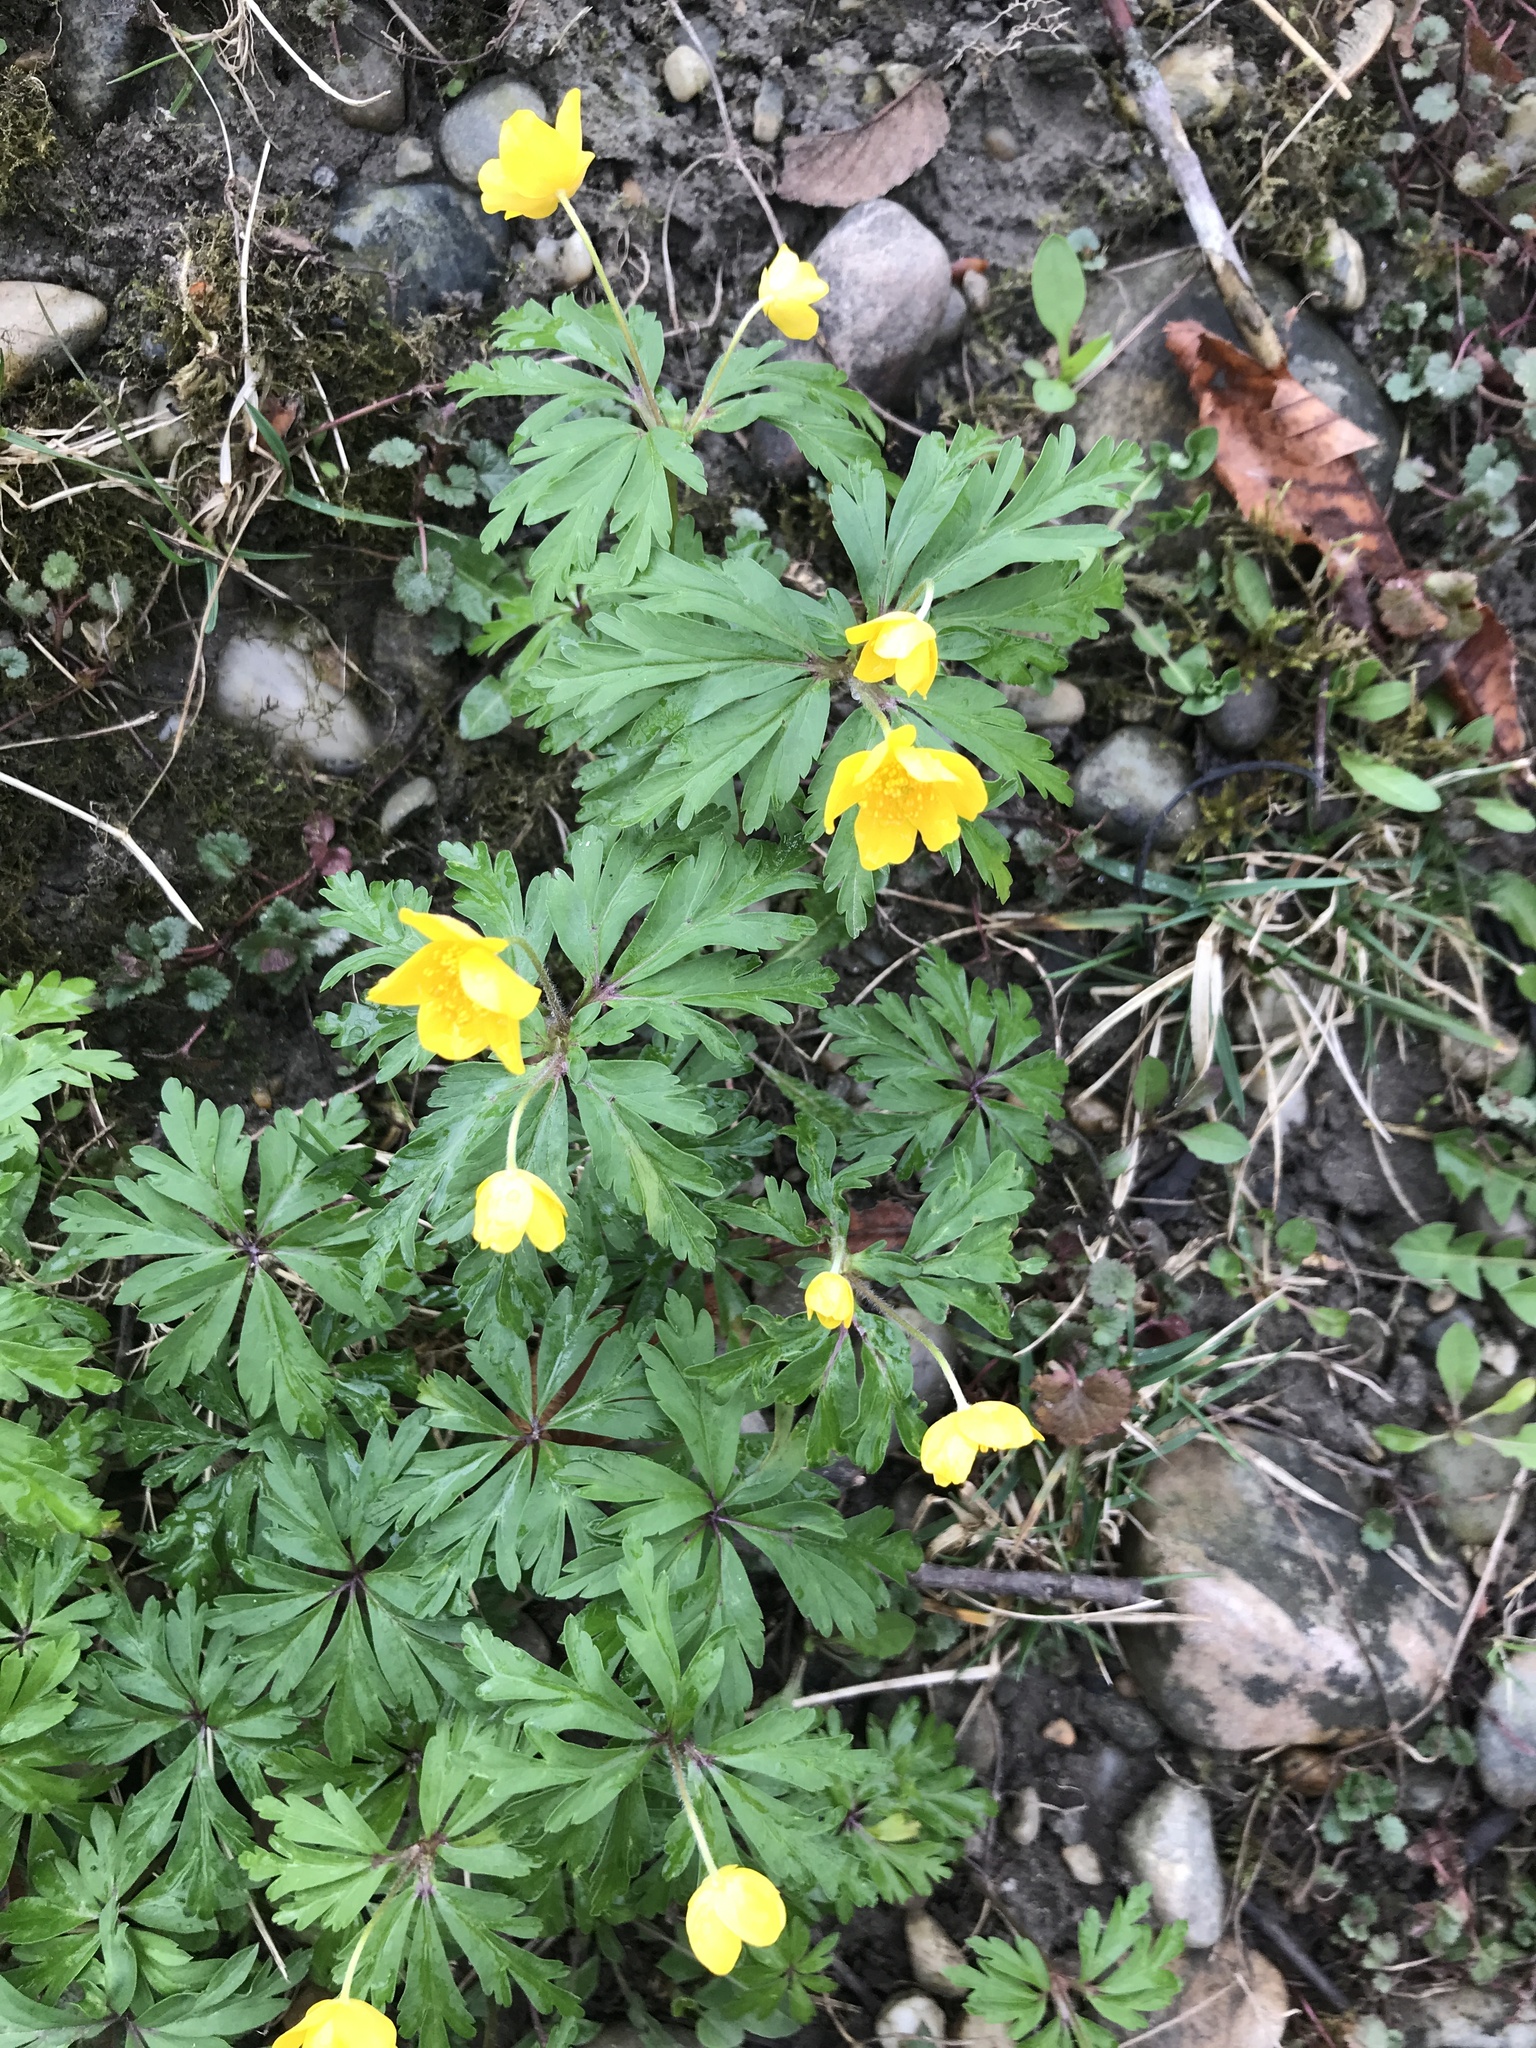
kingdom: Plantae
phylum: Tracheophyta
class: Magnoliopsida
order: Ranunculales
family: Ranunculaceae
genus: Anemone
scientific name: Anemone ranunculoides
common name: Yellow anemone
